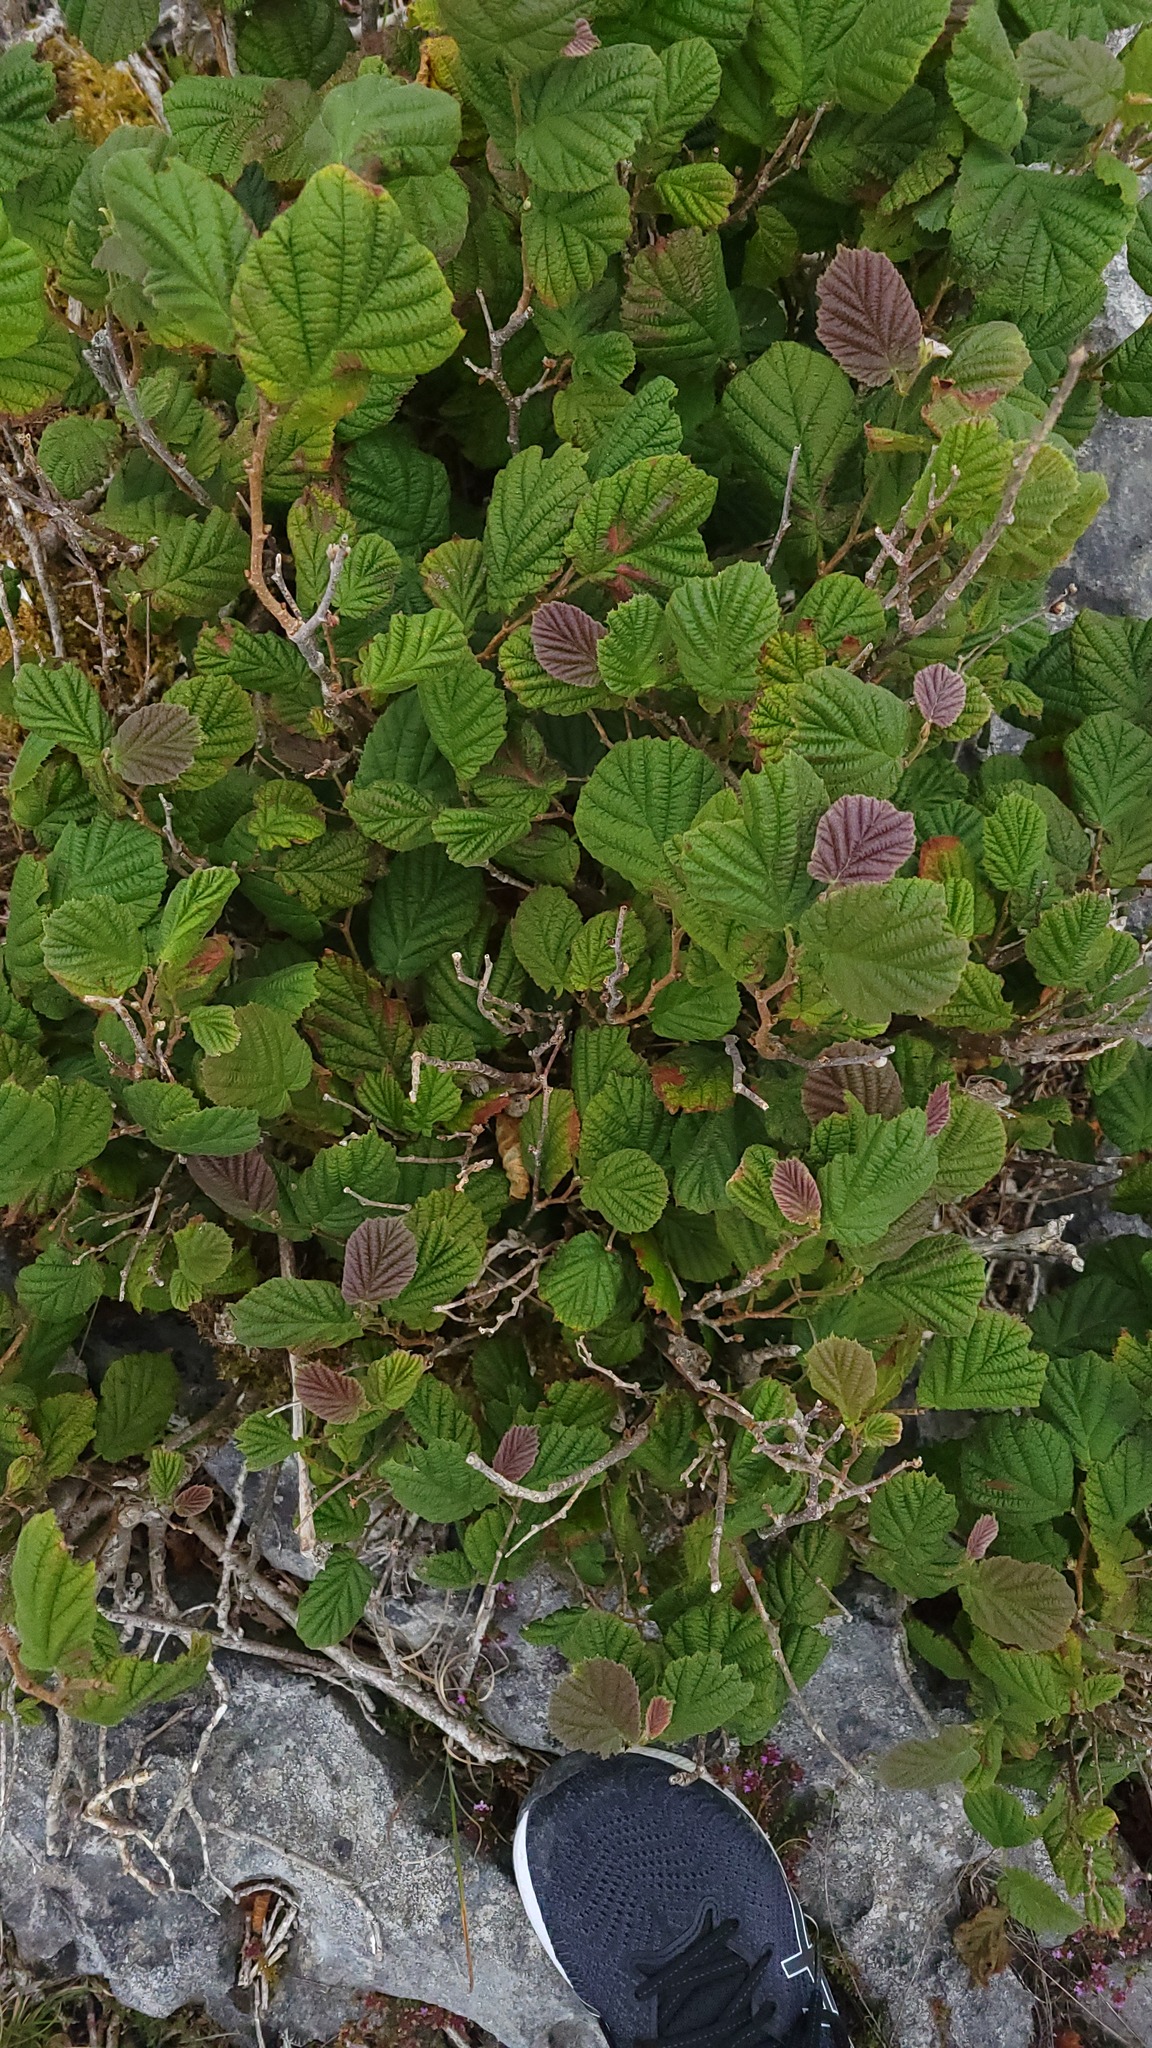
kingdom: Plantae
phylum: Tracheophyta
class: Magnoliopsida
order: Fagales
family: Betulaceae
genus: Corylus
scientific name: Corylus avellana
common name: European hazel
